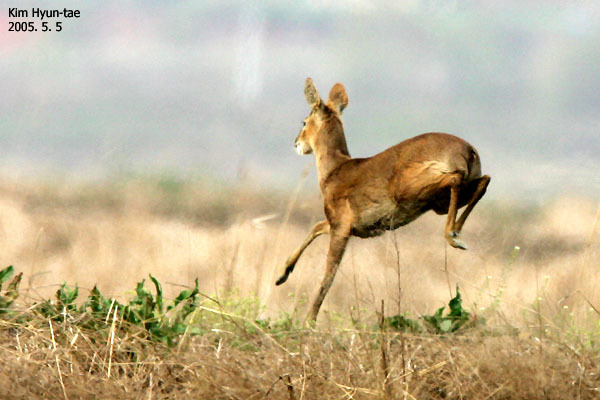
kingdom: Animalia
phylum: Chordata
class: Mammalia
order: Artiodactyla
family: Cervidae
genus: Hydropotes
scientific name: Hydropotes inermis
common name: Chinese water deer
